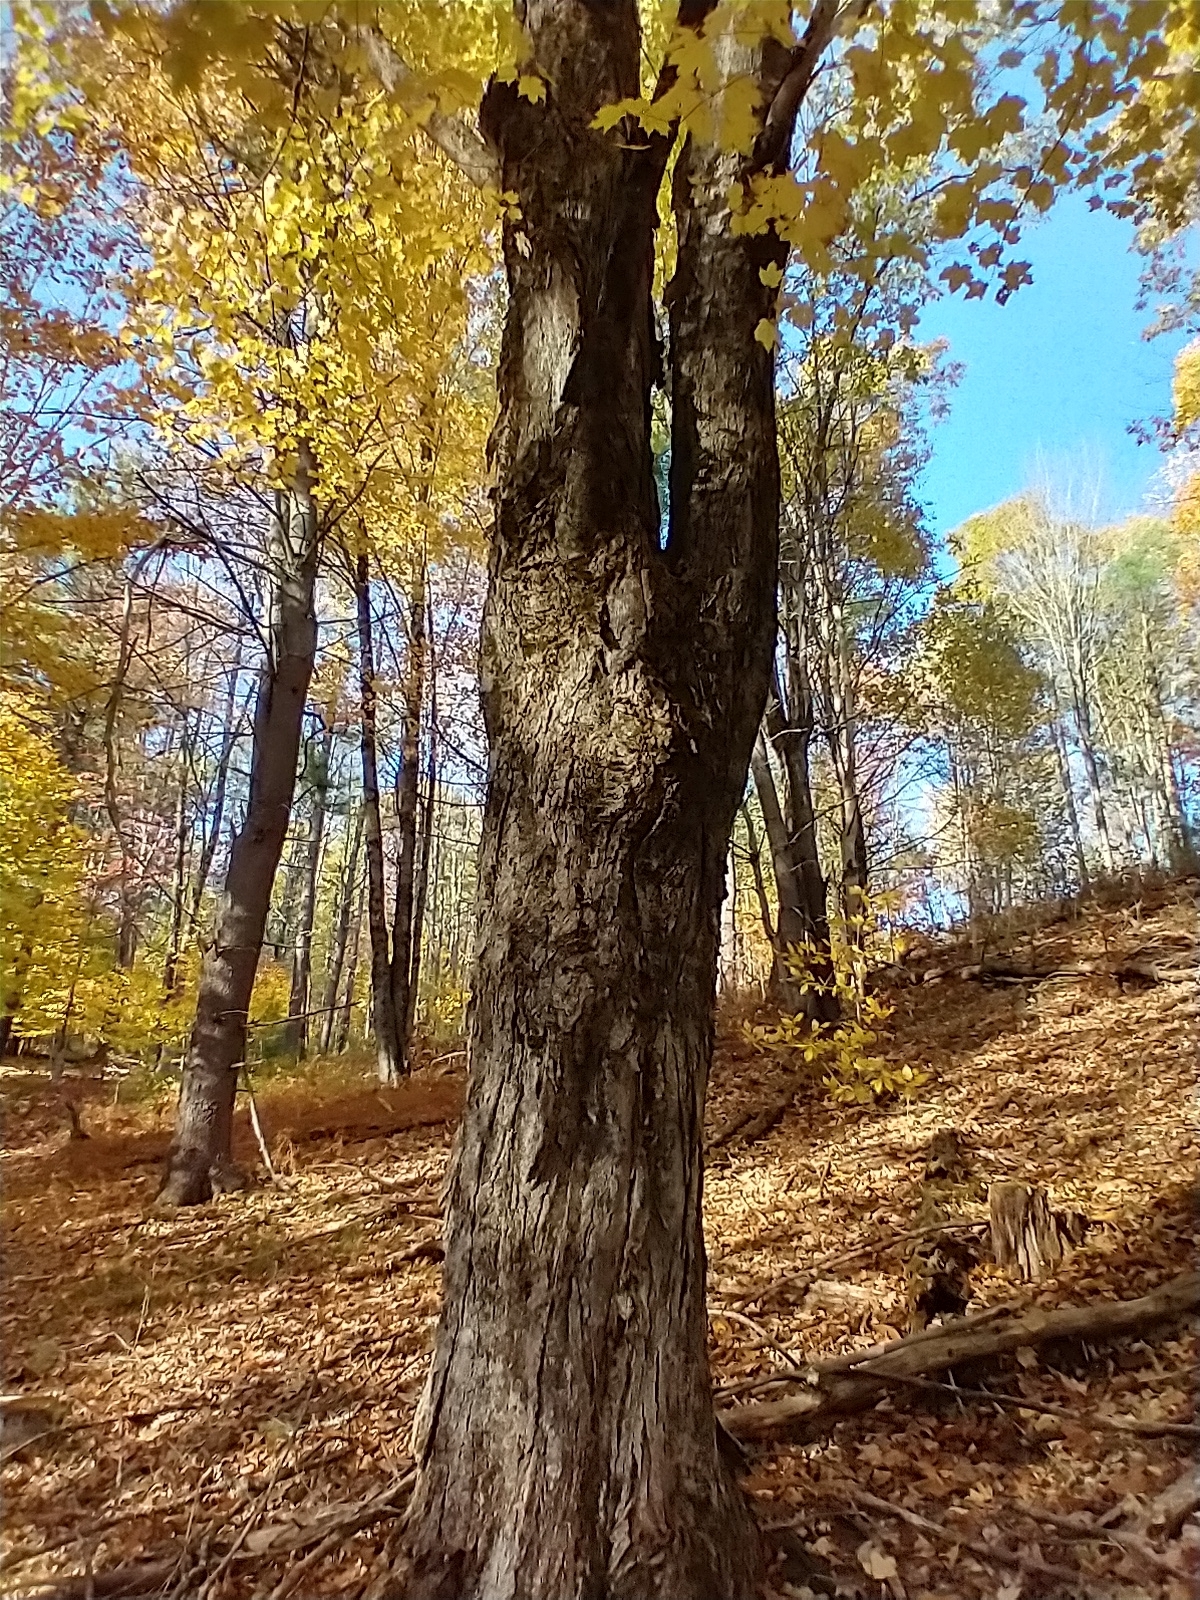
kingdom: Plantae
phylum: Tracheophyta
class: Magnoliopsida
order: Sapindales
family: Sapindaceae
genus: Acer
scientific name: Acer saccharum
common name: Sugar maple
